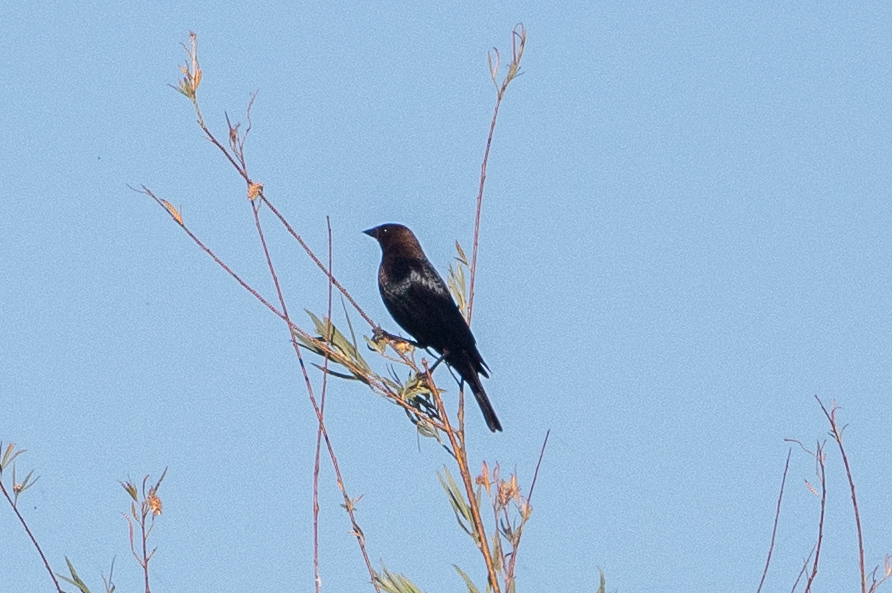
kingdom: Animalia
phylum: Chordata
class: Aves
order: Passeriformes
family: Icteridae
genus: Molothrus
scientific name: Molothrus ater
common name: Brown-headed cowbird
